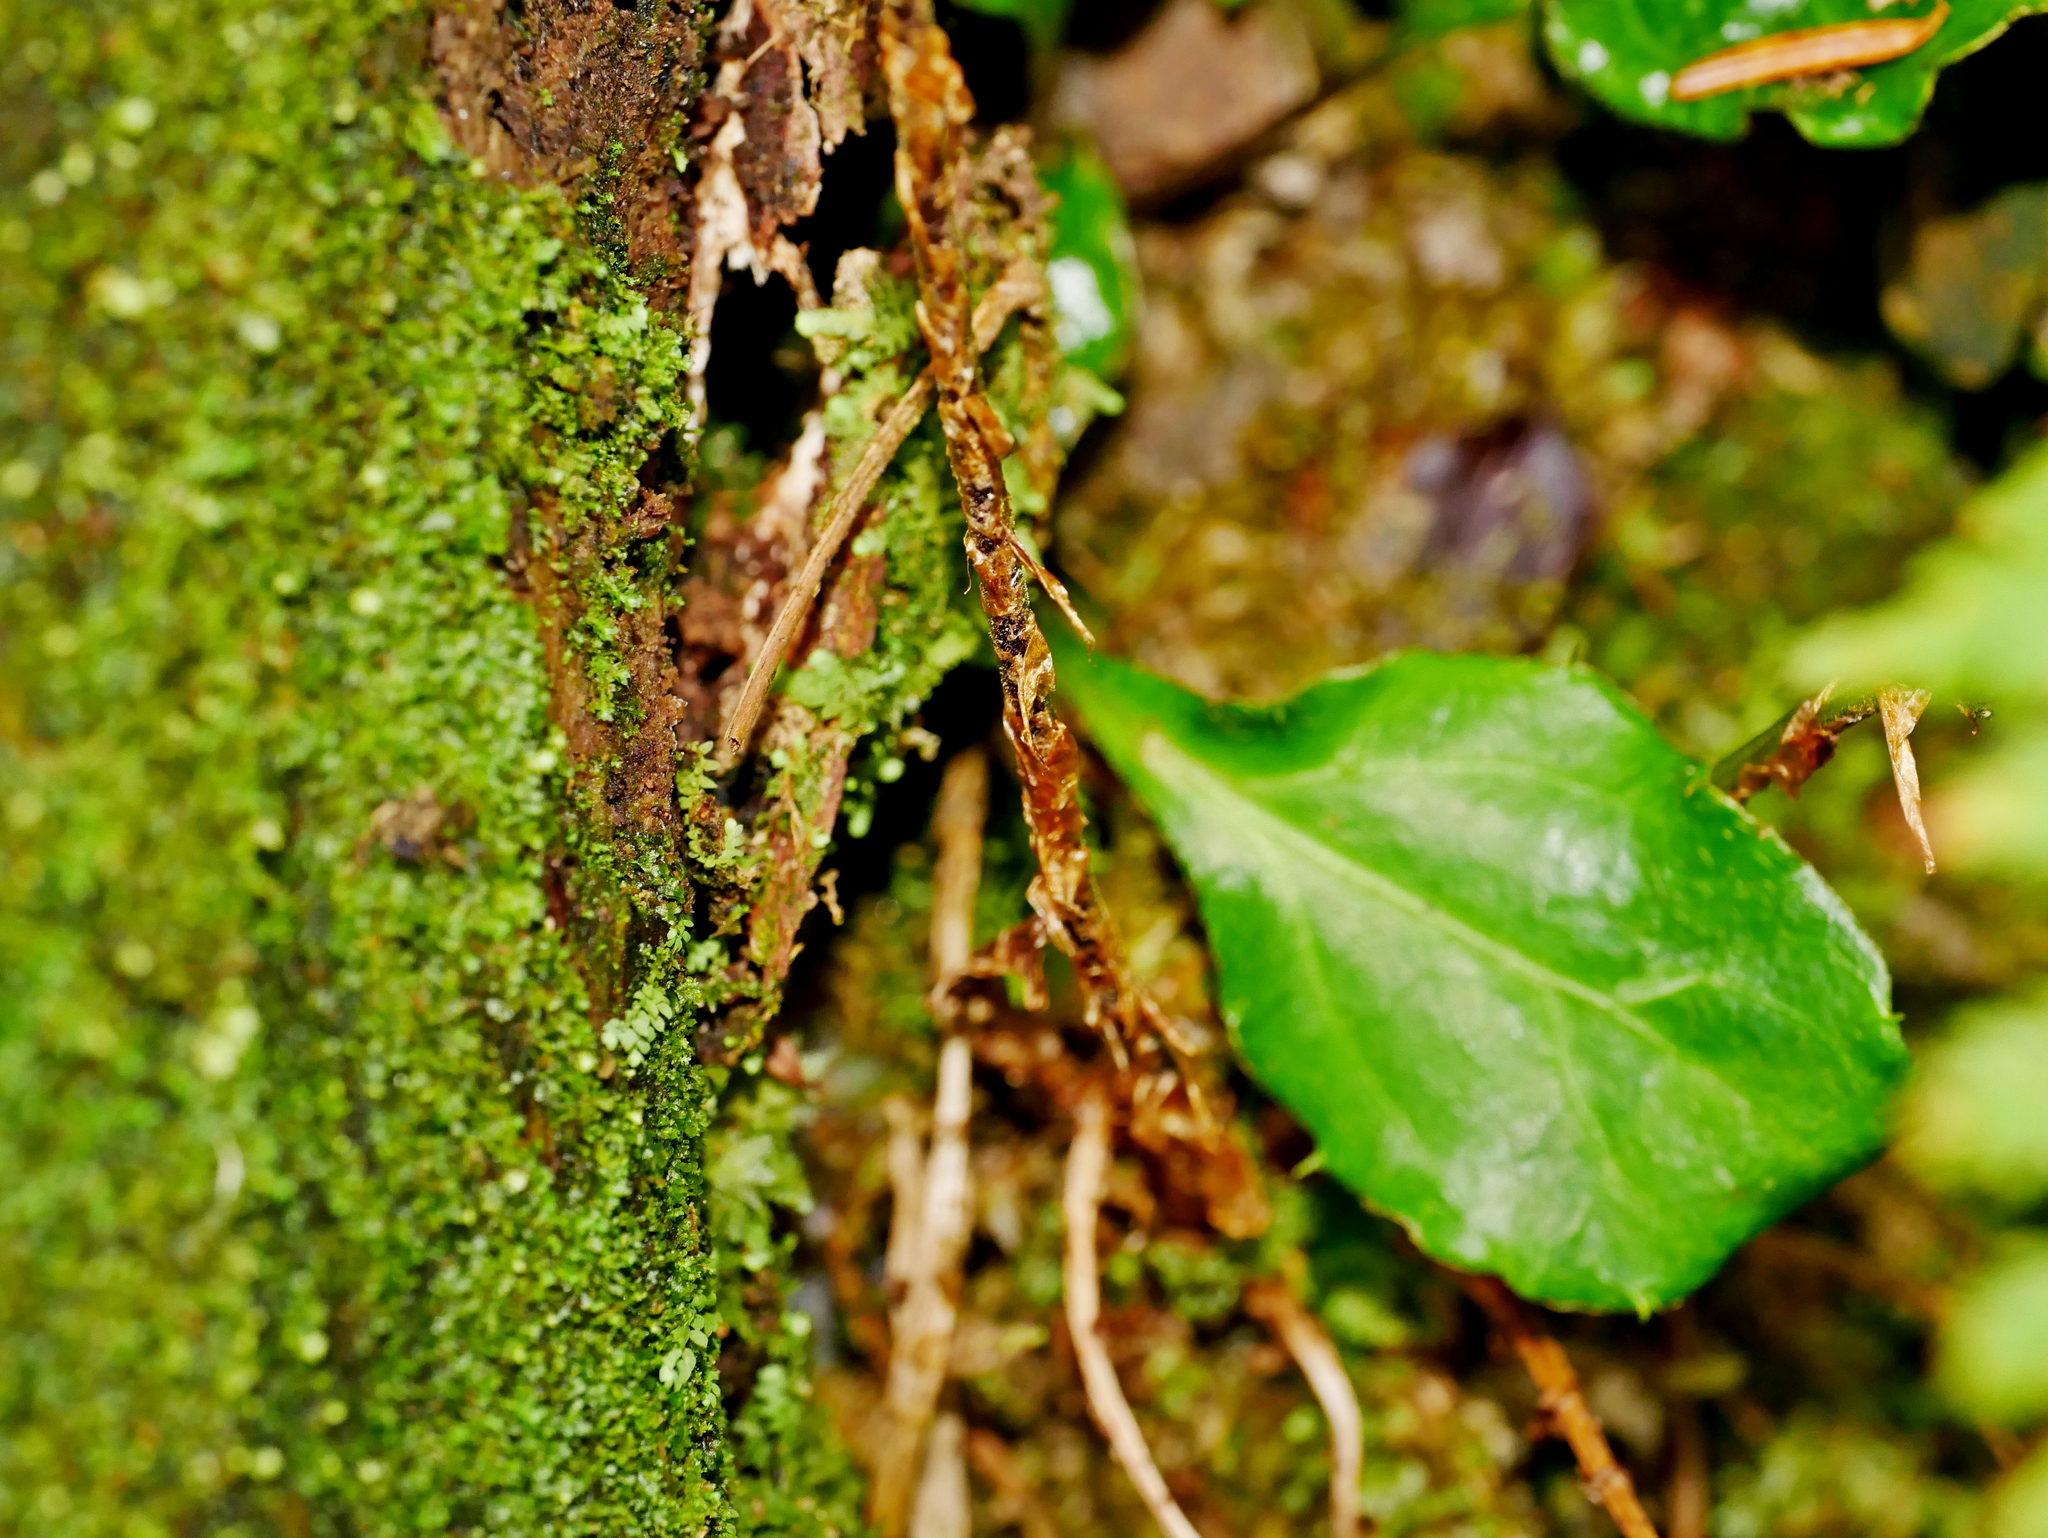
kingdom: Plantae
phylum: Tracheophyta
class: Polypodiopsida
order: Polypodiales
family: Dryopteridaceae
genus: Dryopteris
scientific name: Dryopteris expansa
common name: Northern buckler fern
